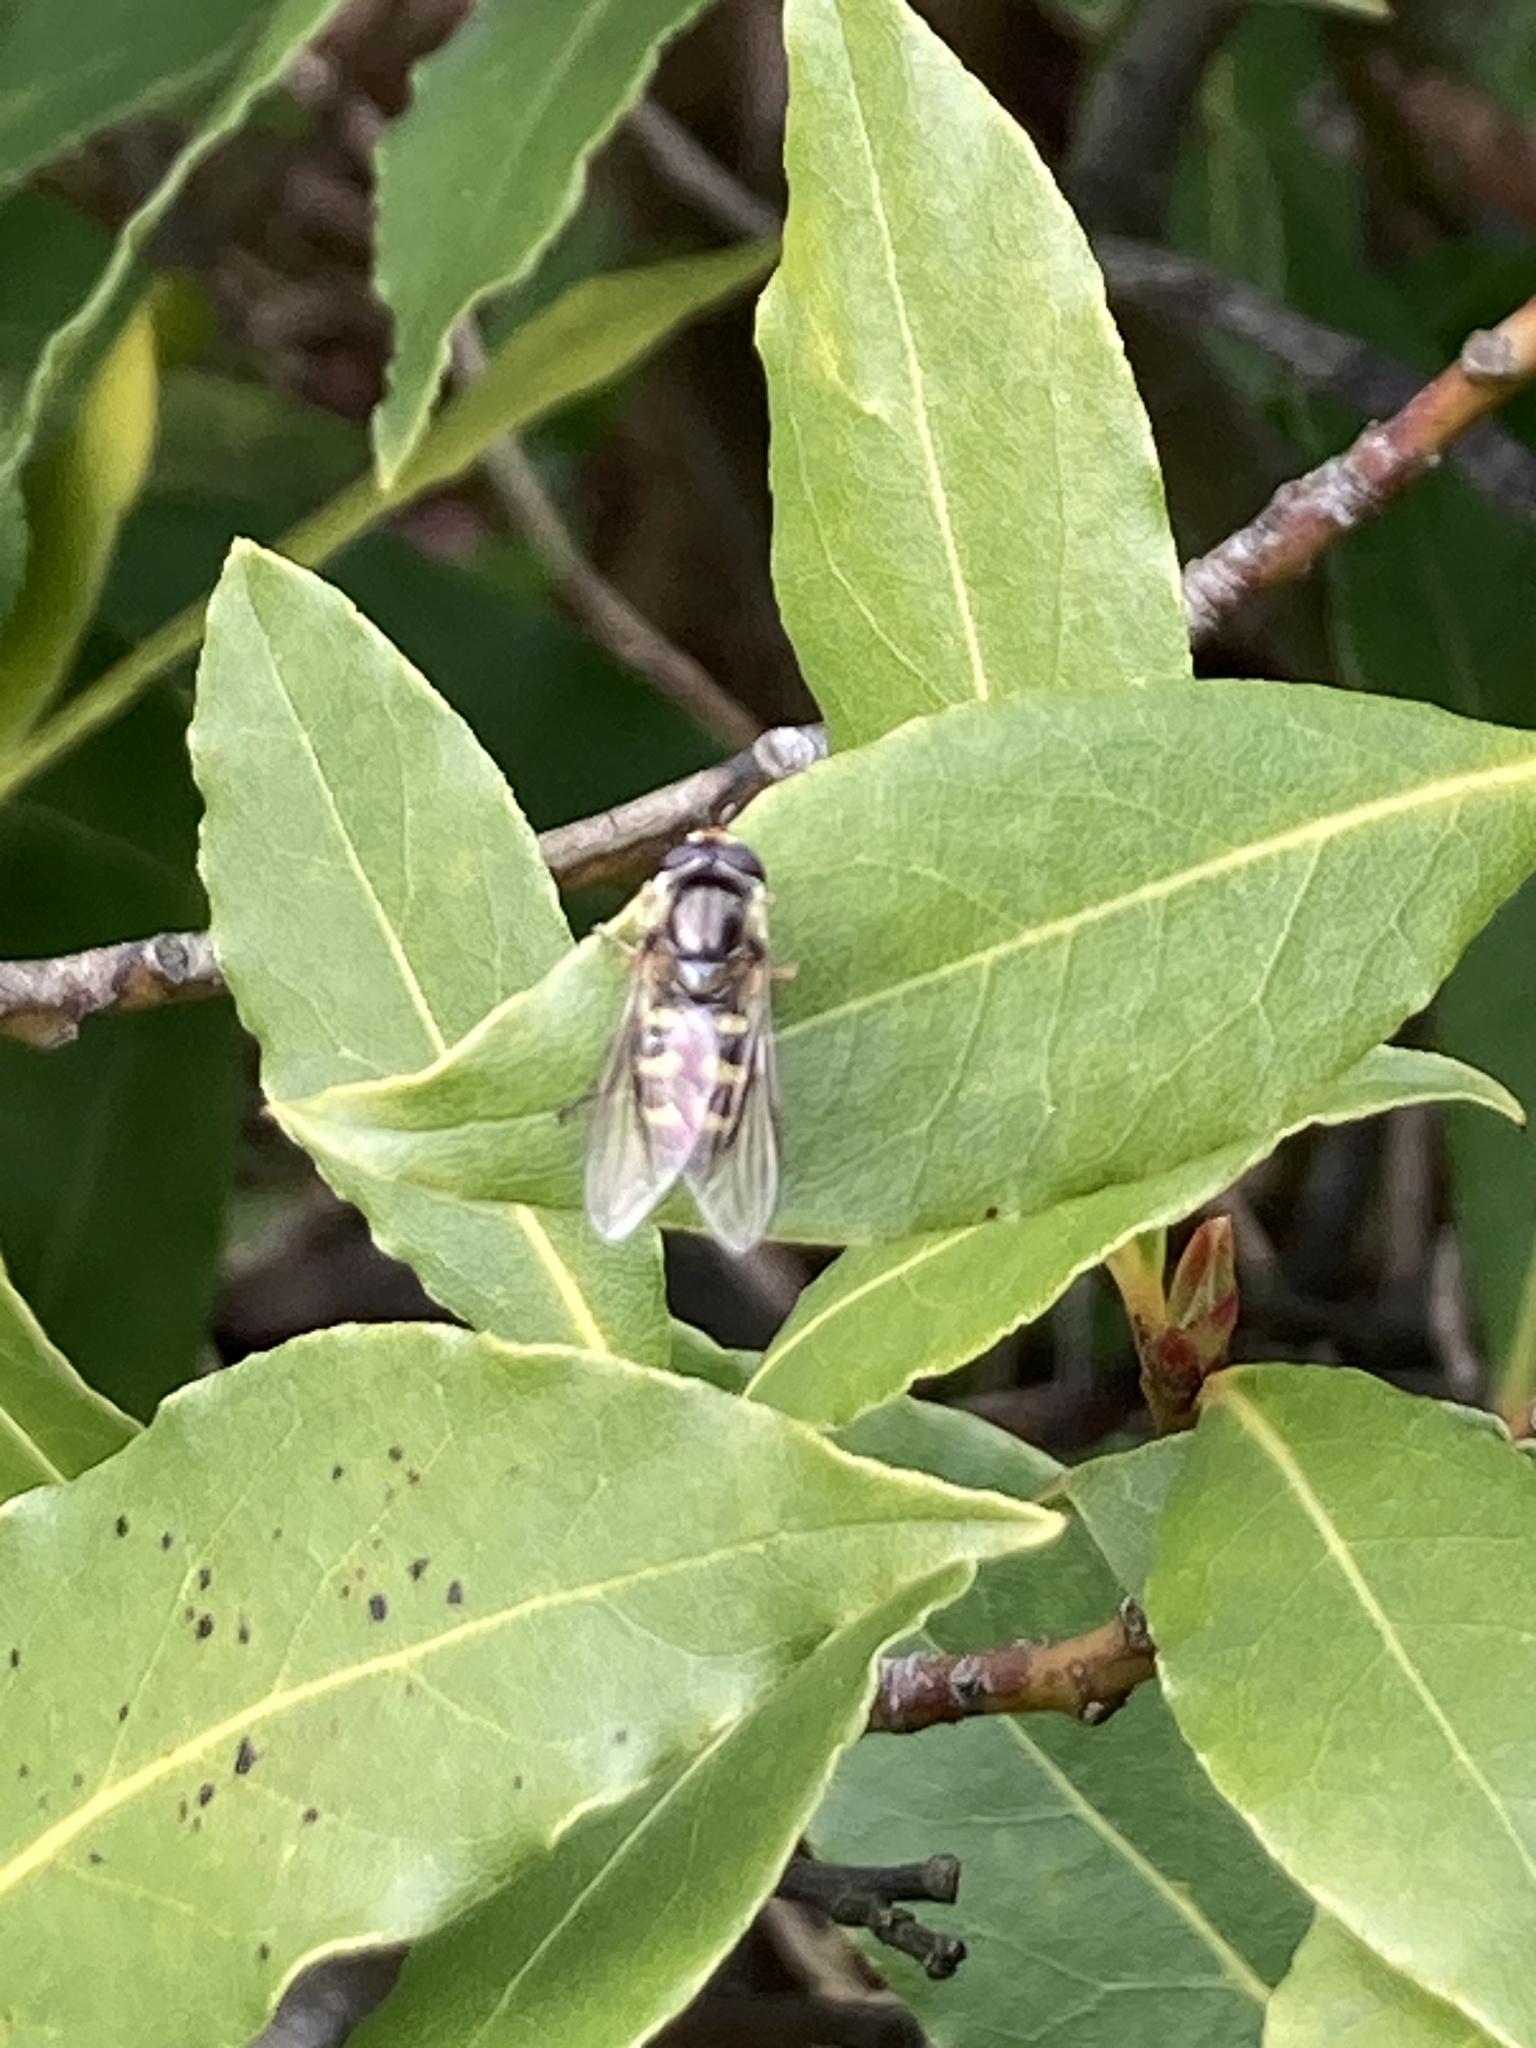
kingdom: Animalia
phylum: Arthropoda
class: Insecta
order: Diptera
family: Syrphidae
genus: Eupeodes
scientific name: Eupeodes corollae
